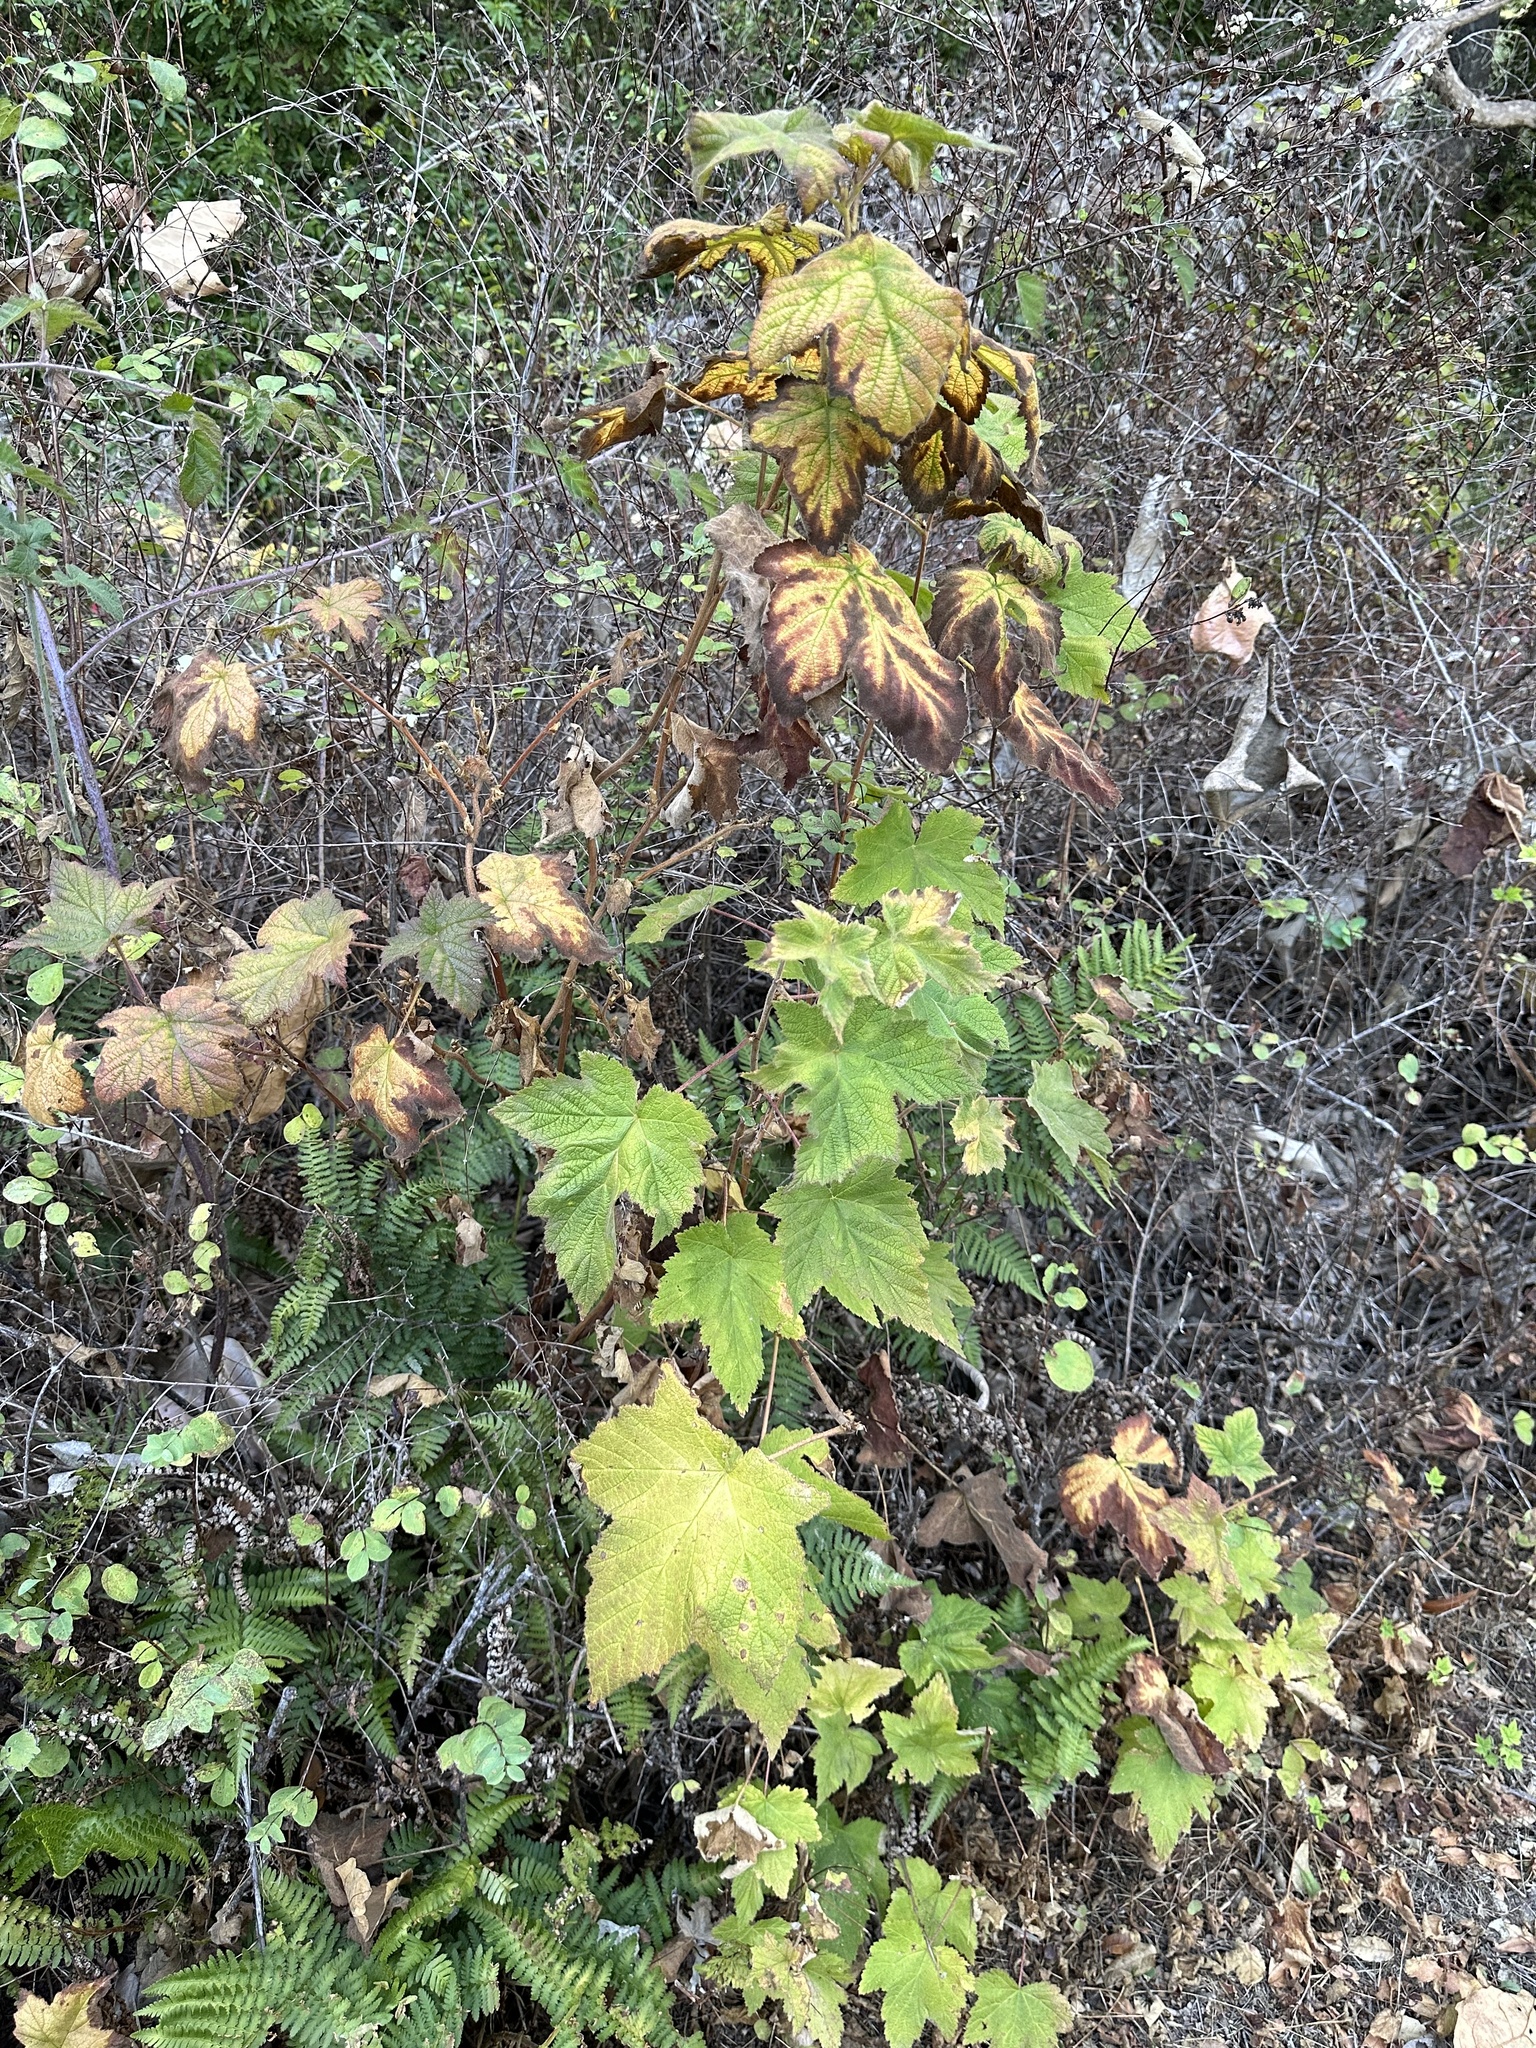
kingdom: Plantae
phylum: Tracheophyta
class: Magnoliopsida
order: Rosales
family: Rosaceae
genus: Rubus
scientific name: Rubus parviflorus
